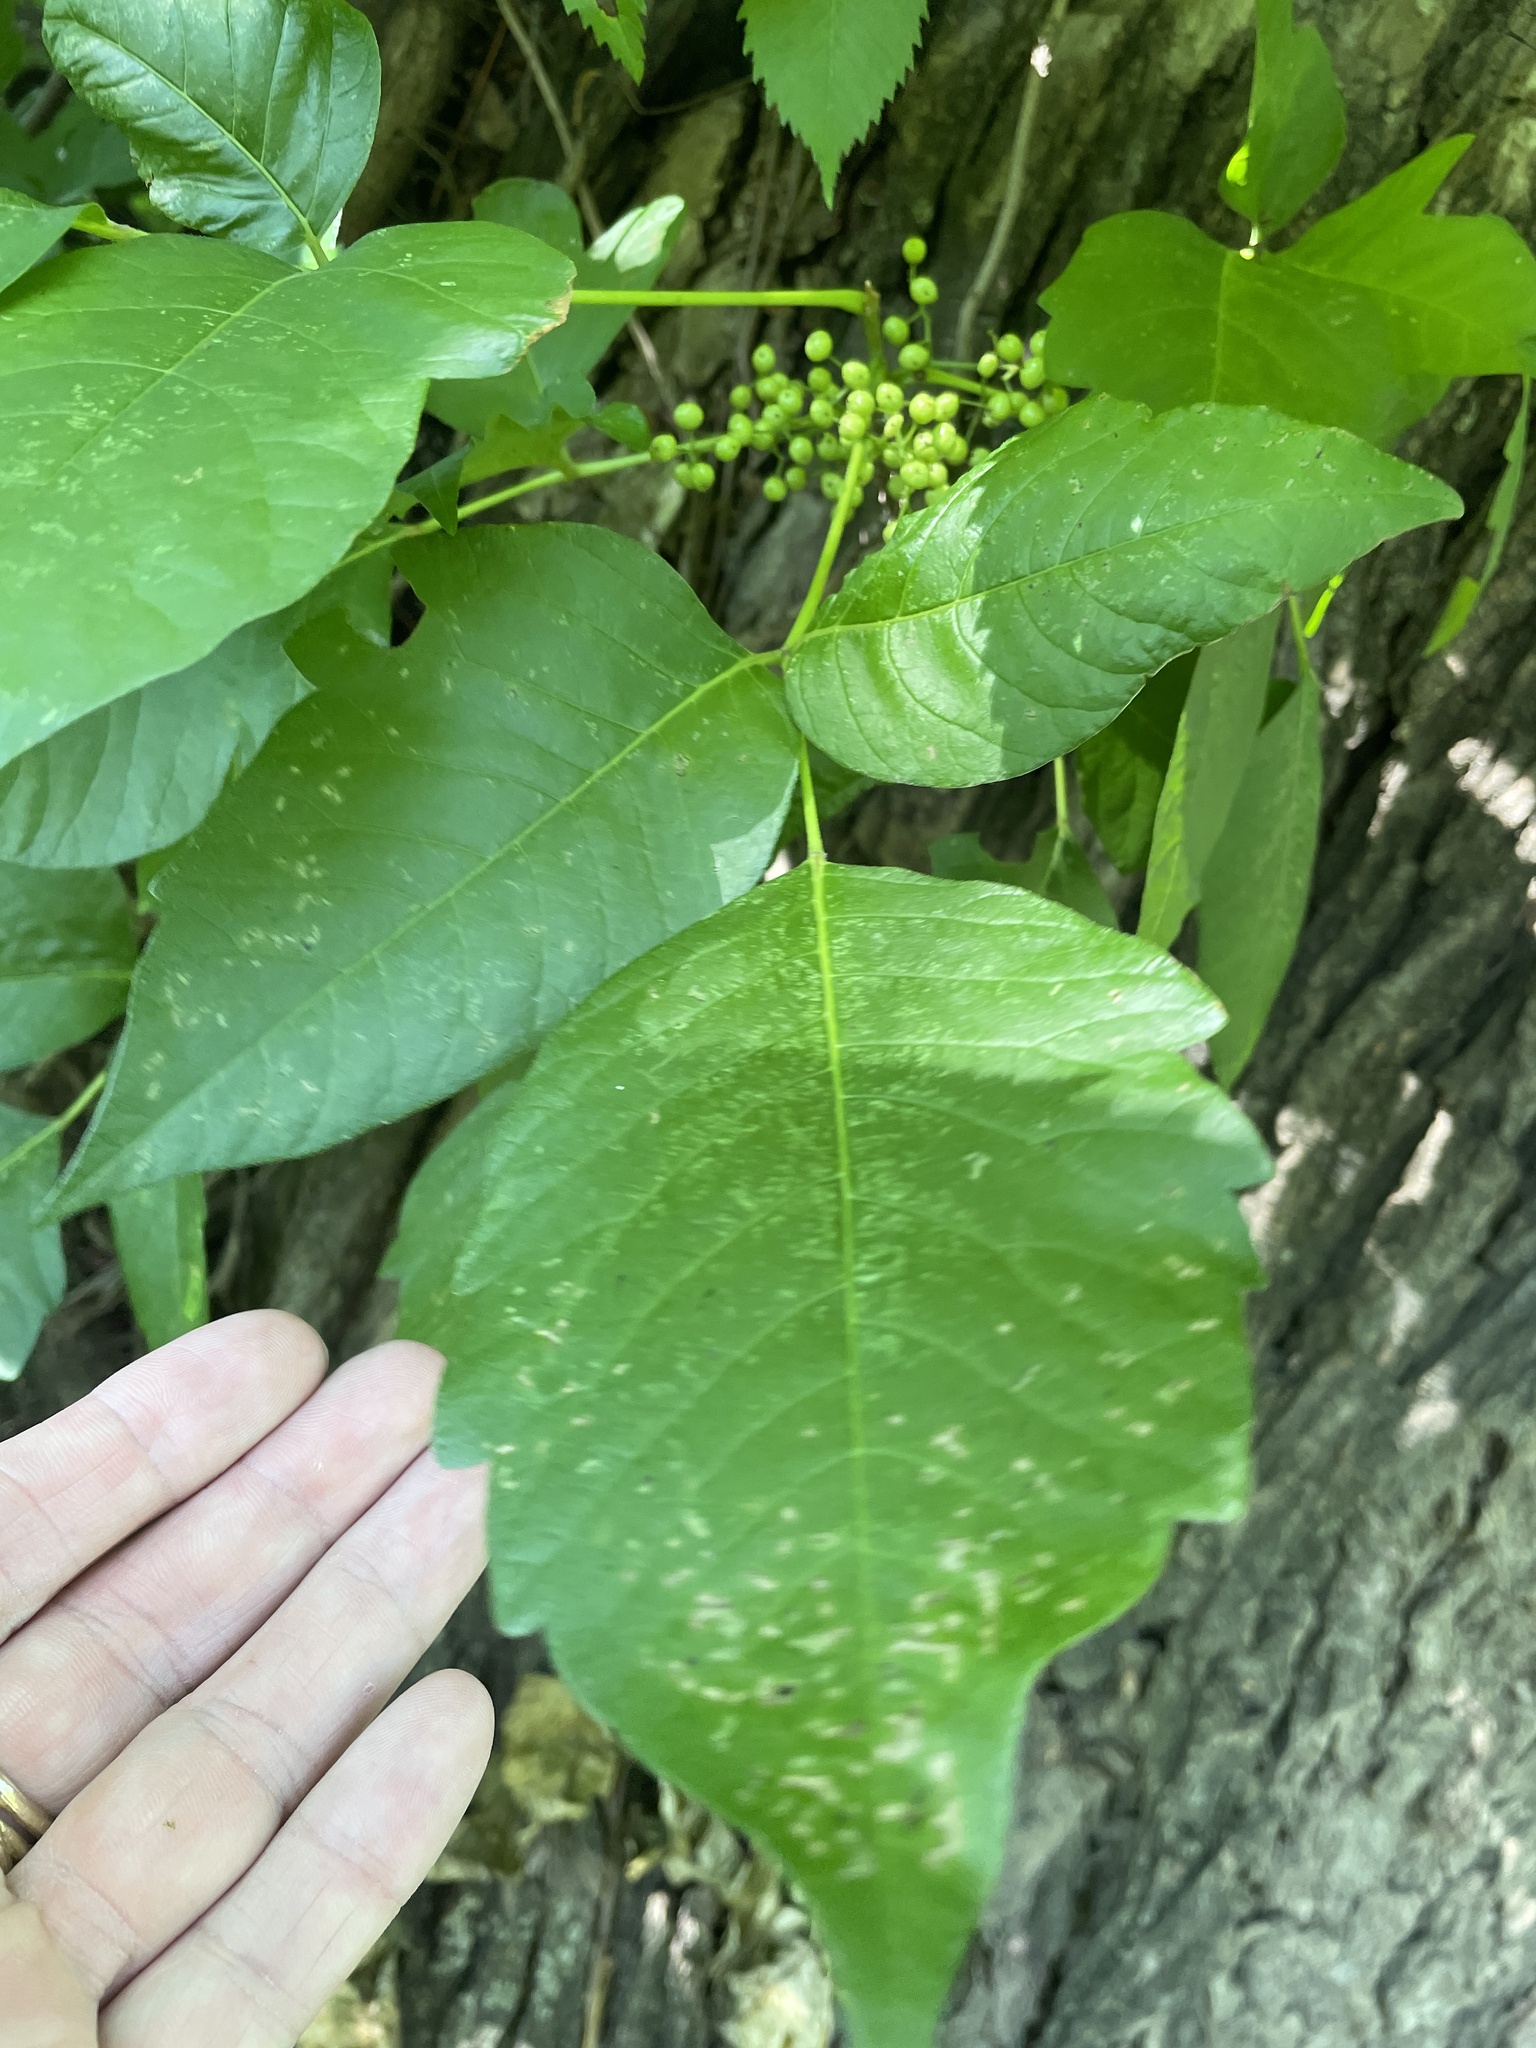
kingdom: Plantae
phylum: Tracheophyta
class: Magnoliopsida
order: Sapindales
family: Anacardiaceae
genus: Toxicodendron
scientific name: Toxicodendron radicans
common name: Poison ivy
